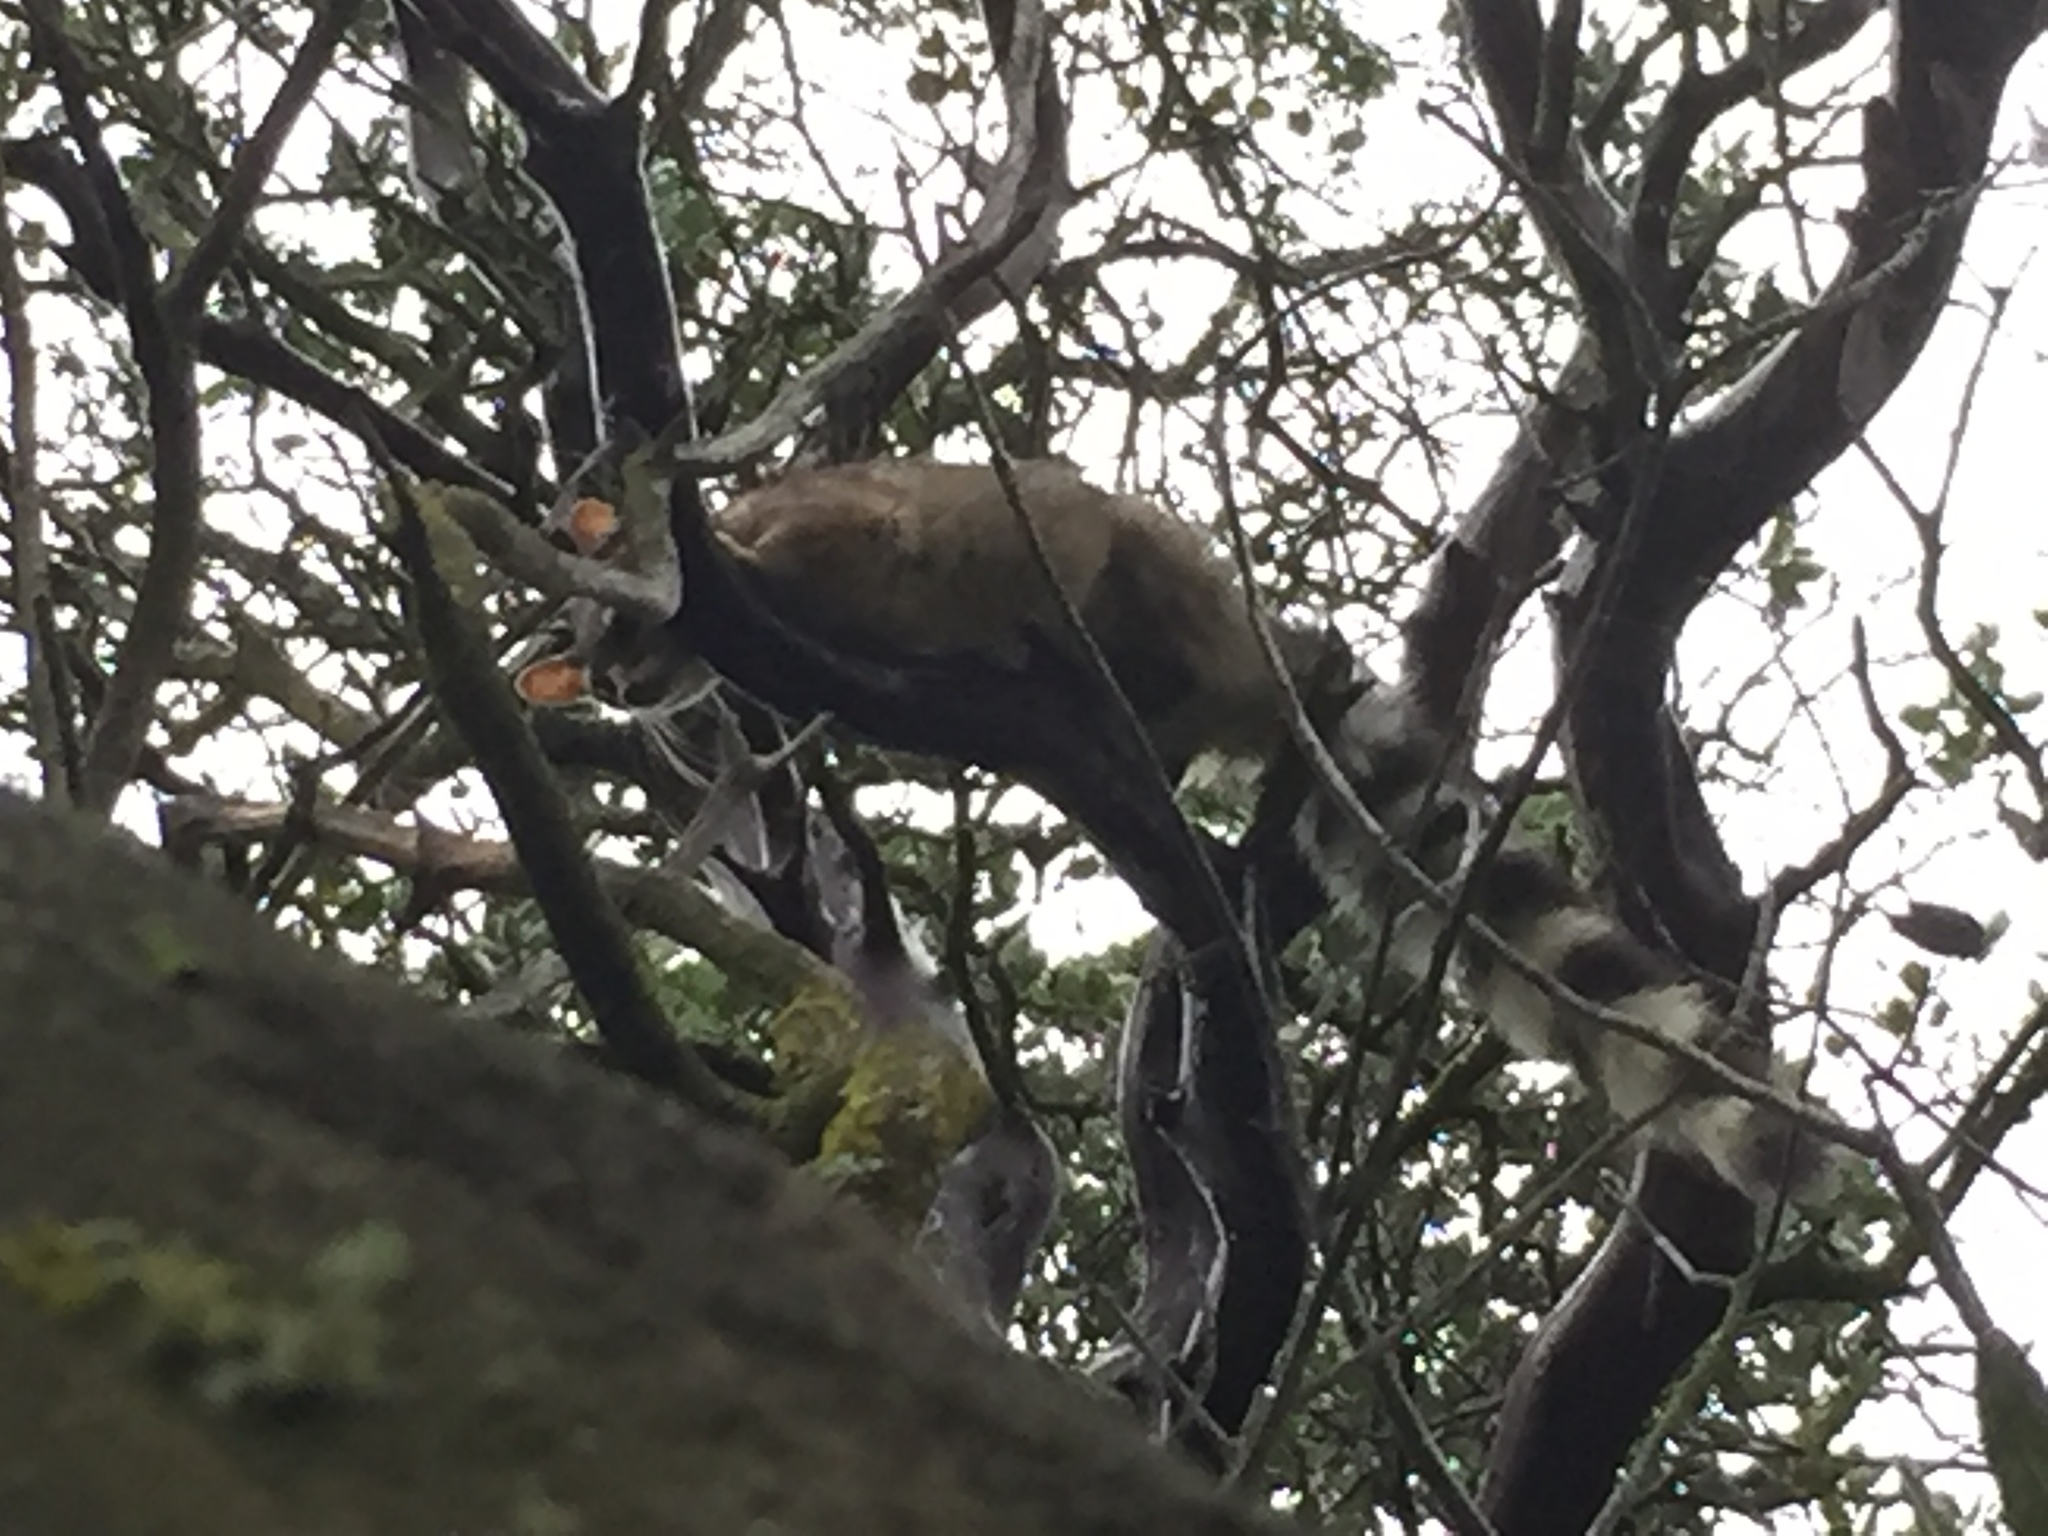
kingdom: Animalia
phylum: Chordata
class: Mammalia
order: Carnivora
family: Procyonidae
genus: Bassariscus
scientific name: Bassariscus astutus
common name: Ringtail
